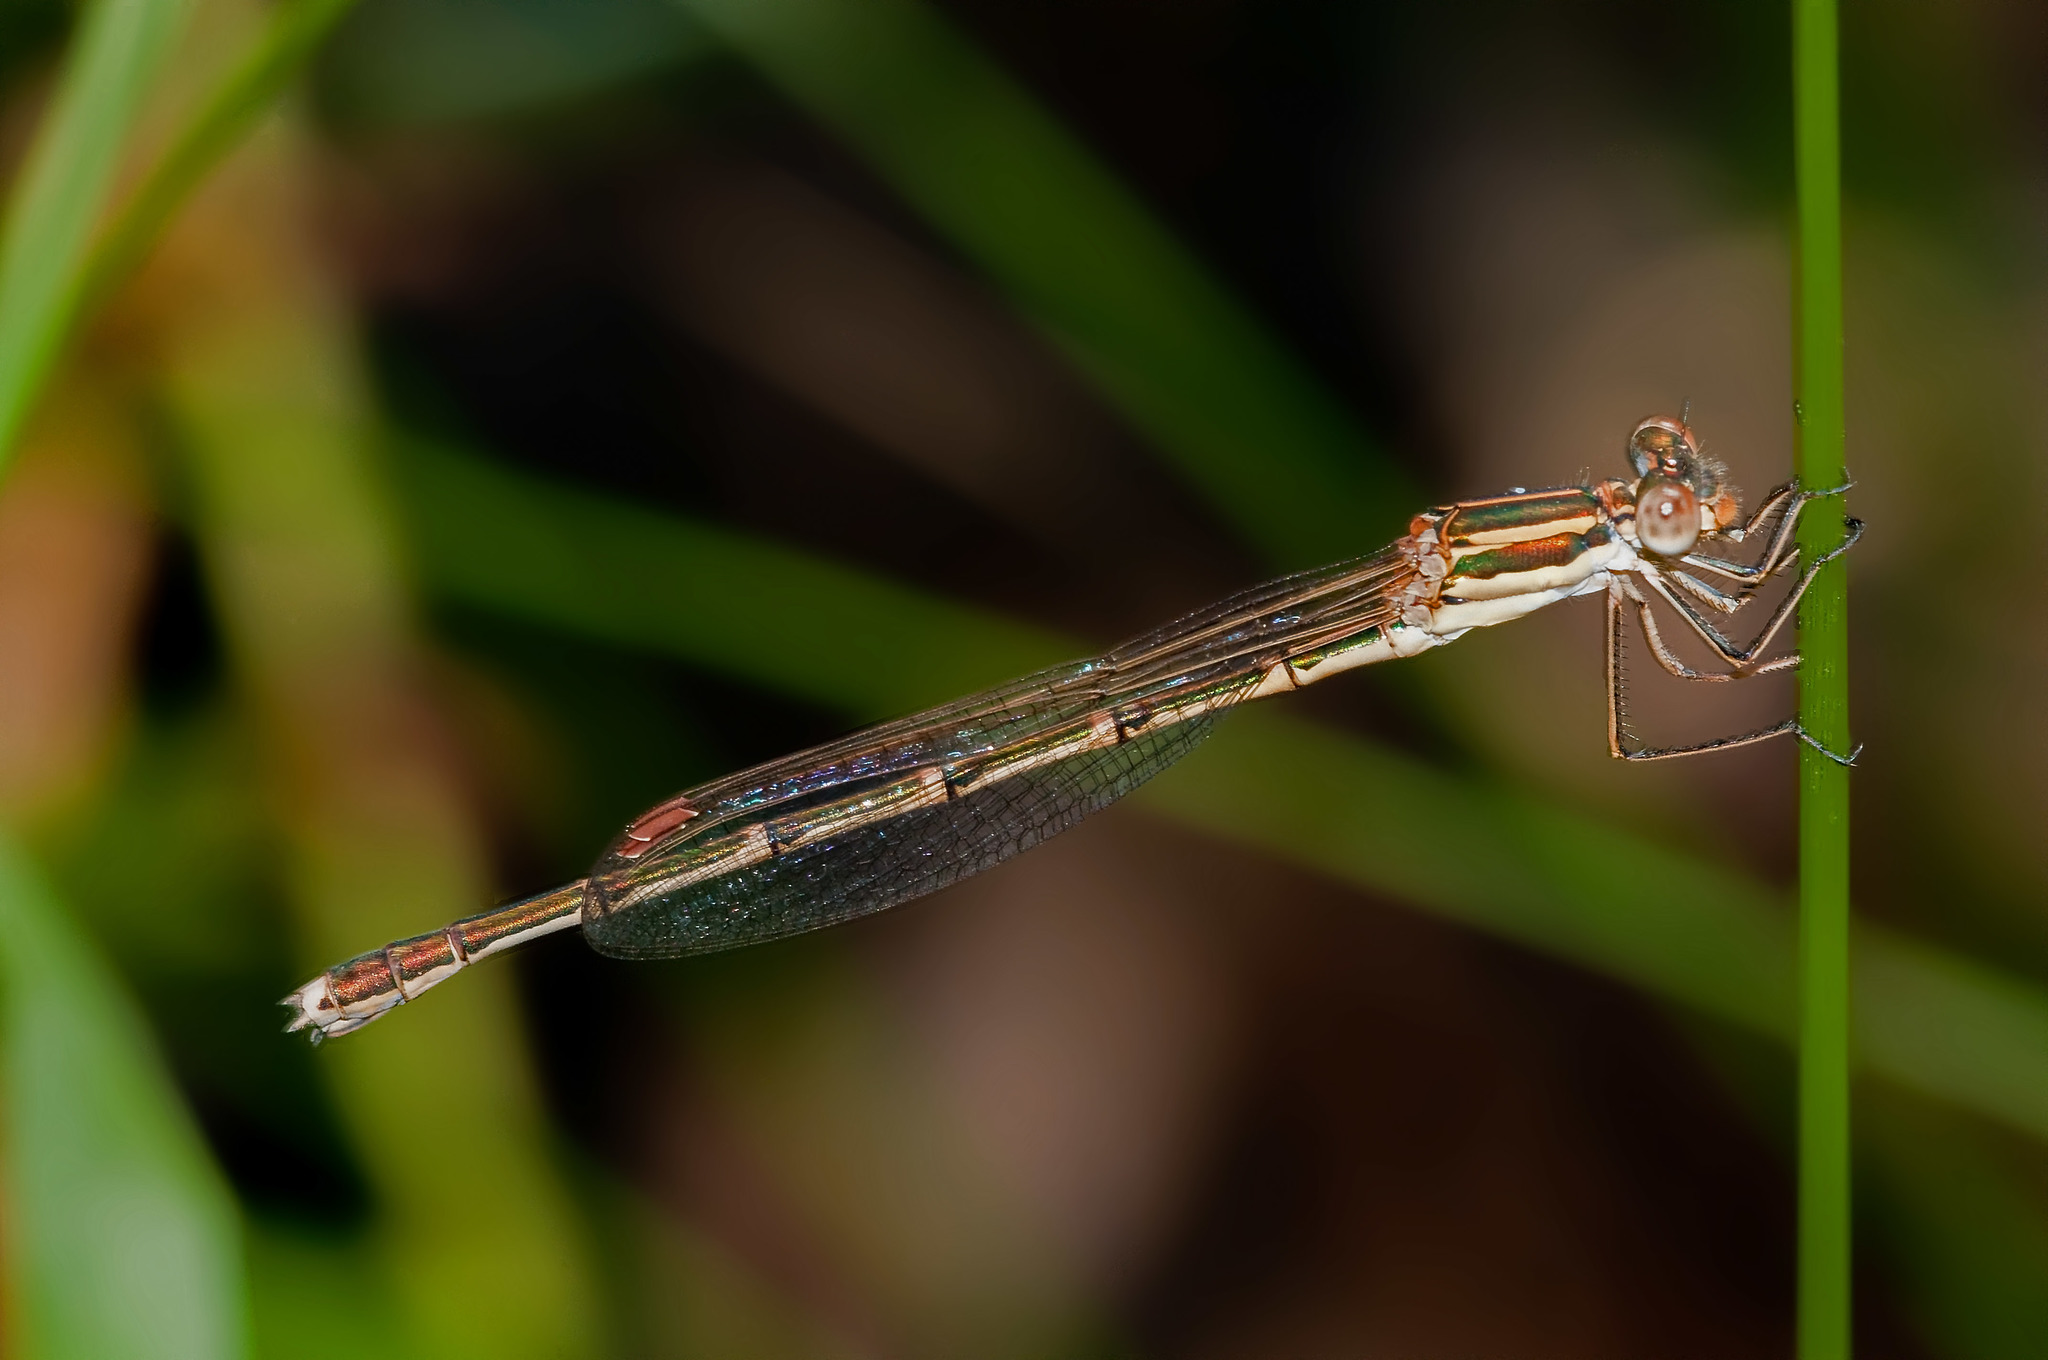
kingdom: Animalia
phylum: Arthropoda
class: Insecta
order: Odonata
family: Lestidae
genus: Austrolestes
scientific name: Austrolestes analis
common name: Slender ringtail
